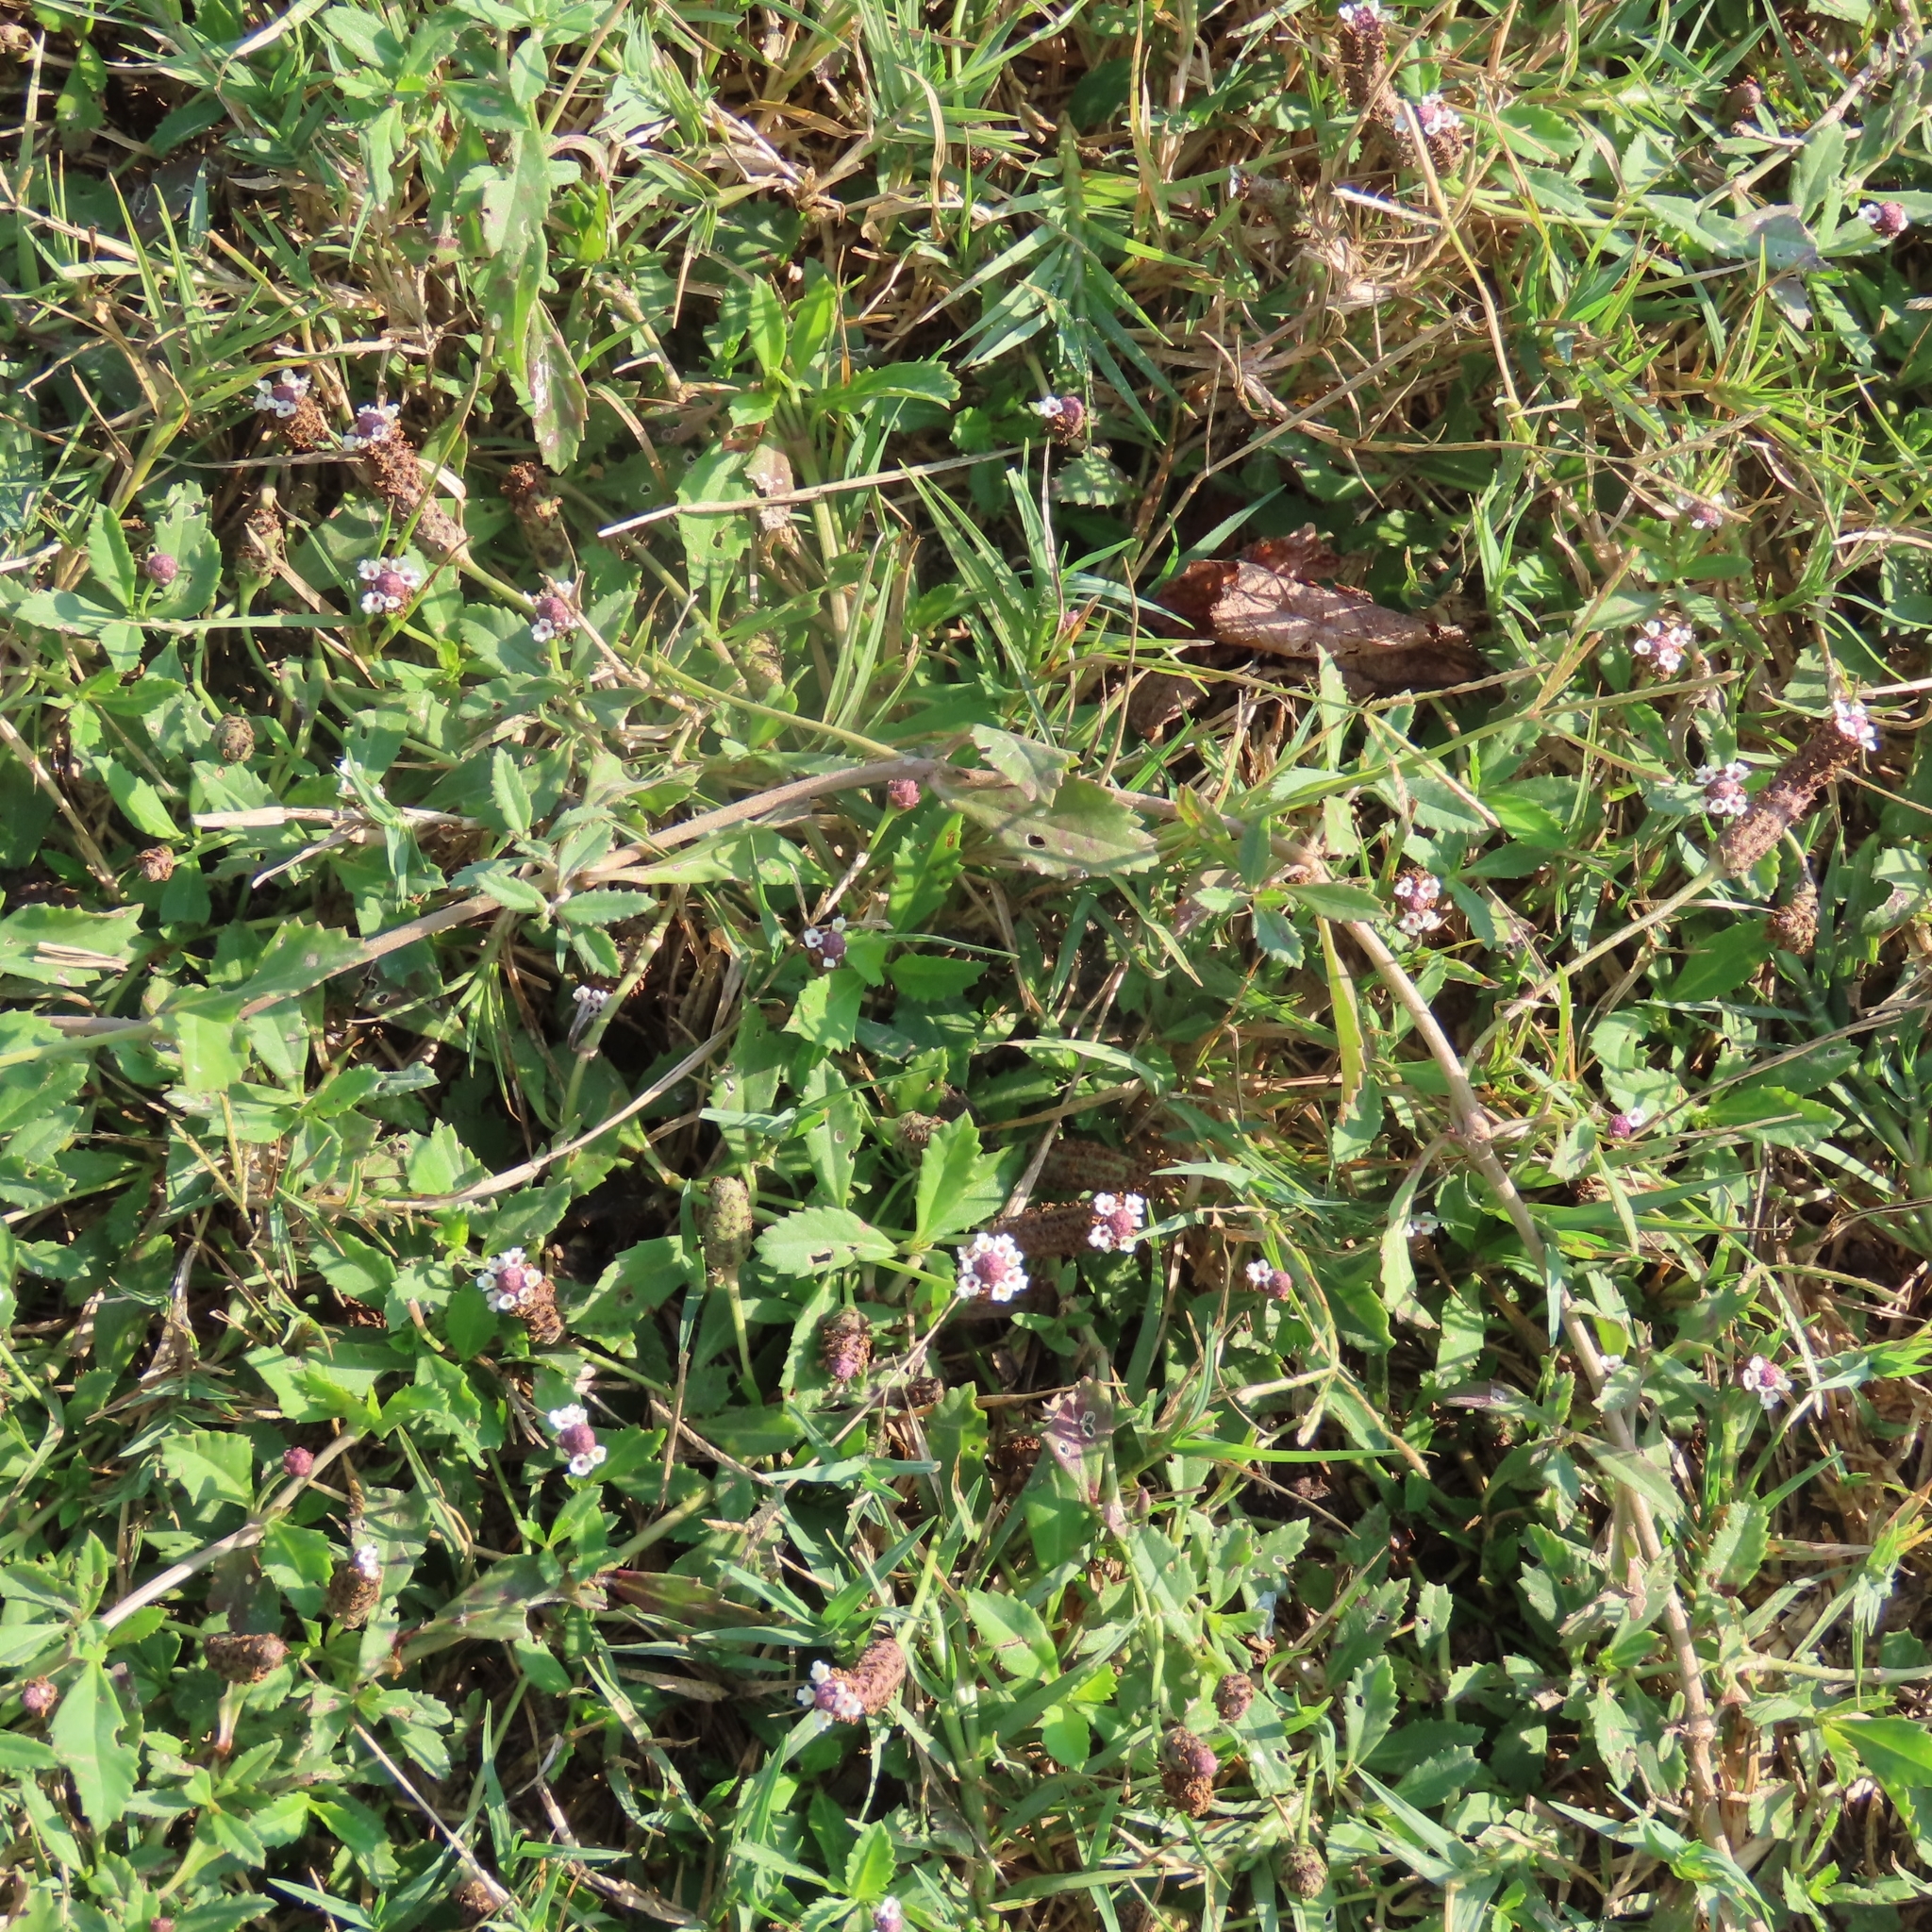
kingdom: Plantae
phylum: Tracheophyta
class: Magnoliopsida
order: Lamiales
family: Verbenaceae
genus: Phyla
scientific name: Phyla nodiflora
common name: Frogfruit
